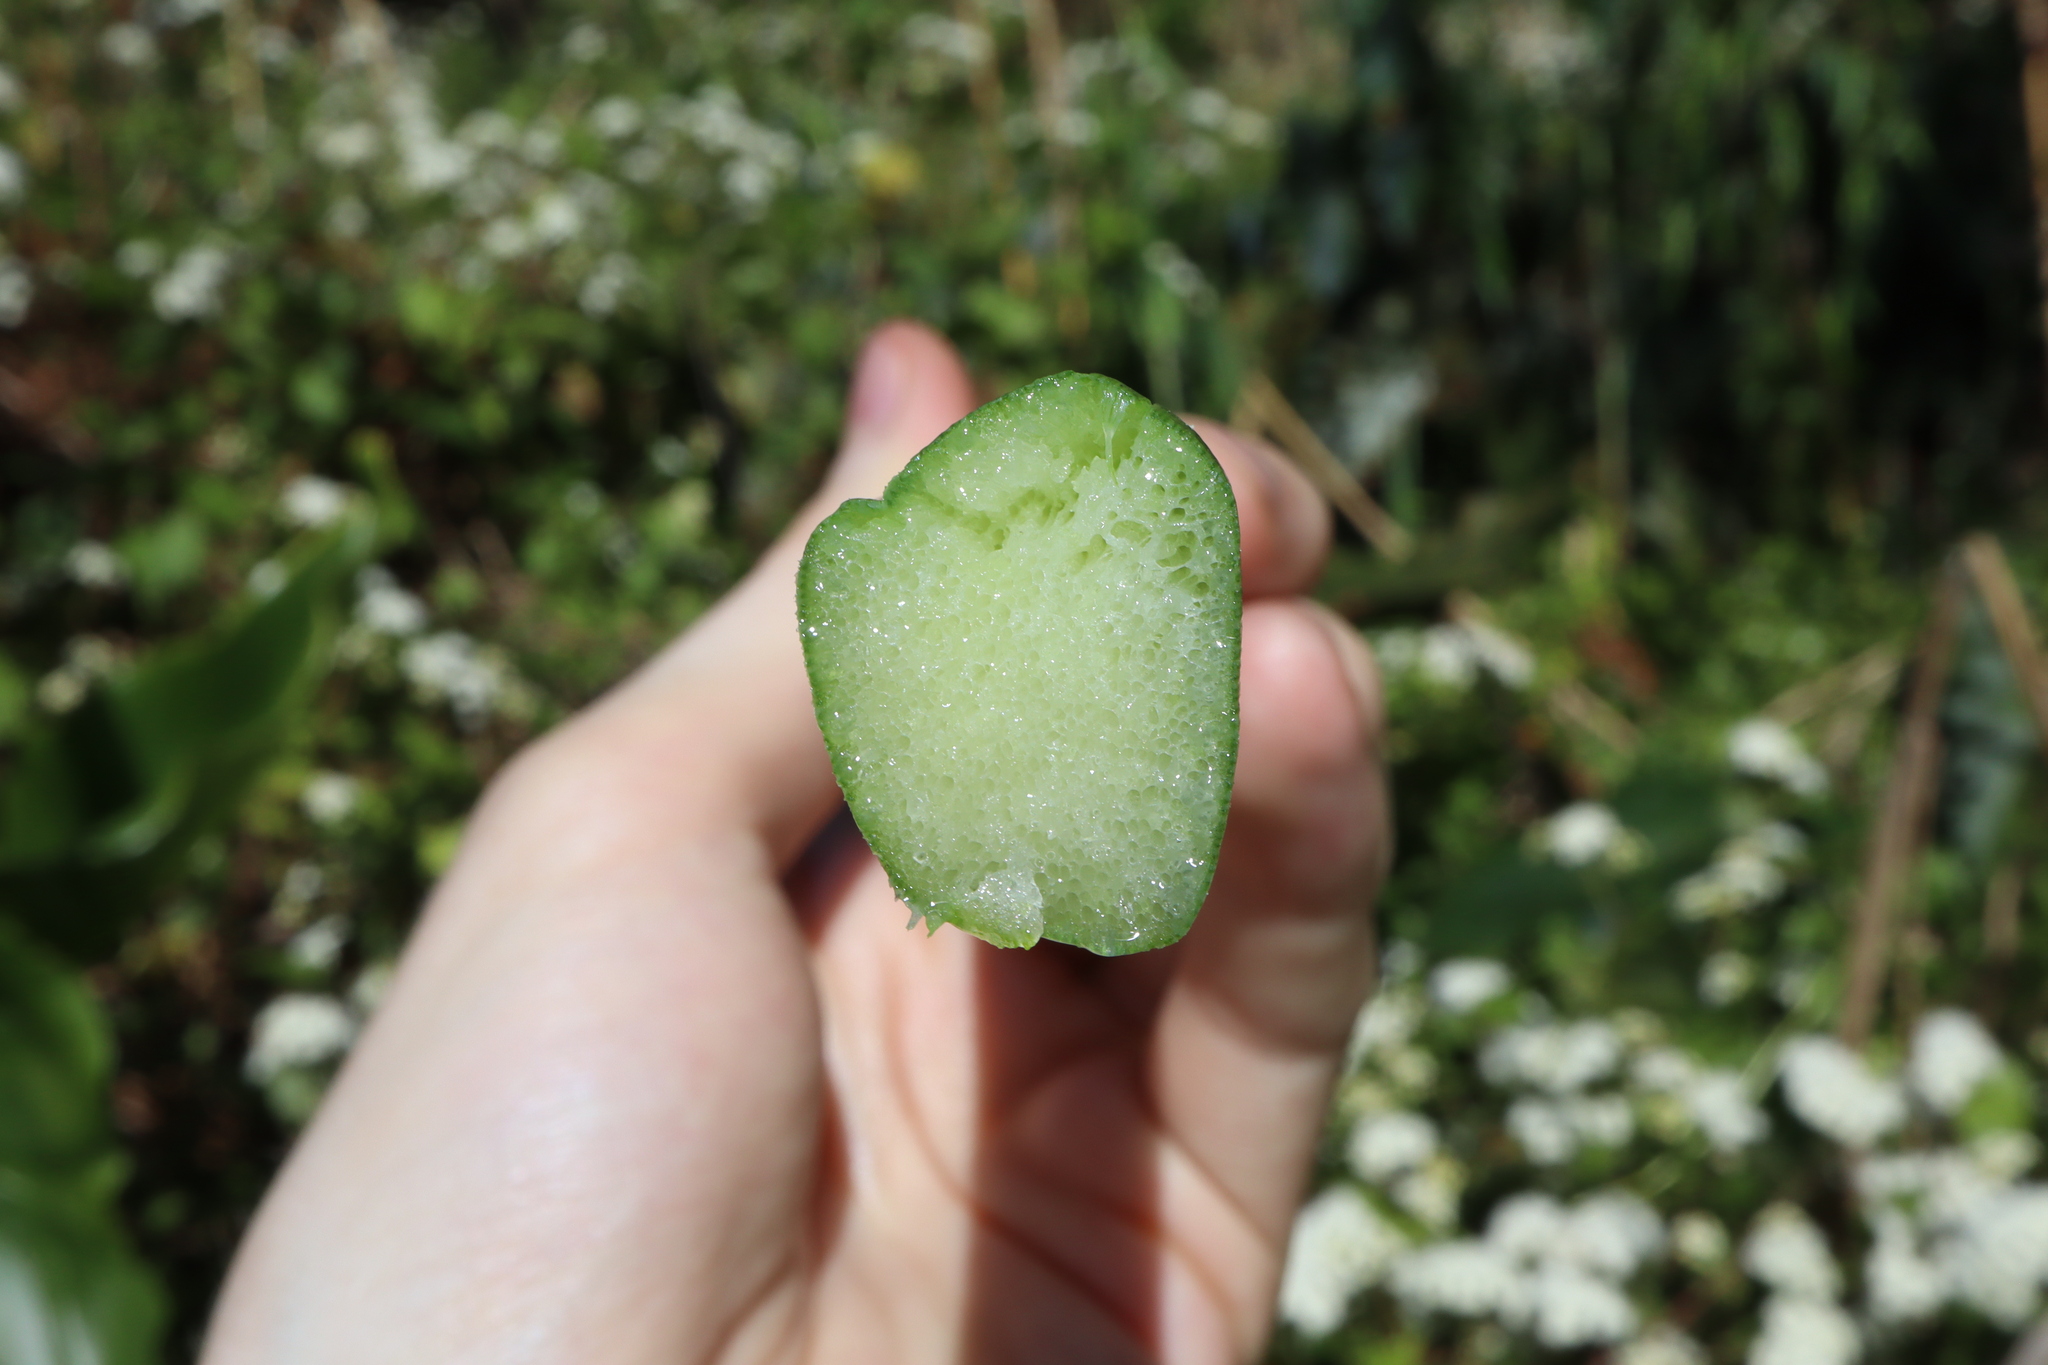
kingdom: Plantae
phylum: Tracheophyta
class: Liliopsida
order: Alismatales
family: Araceae
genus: Zantedeschia
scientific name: Zantedeschia aethiopica
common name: Altar-lily
